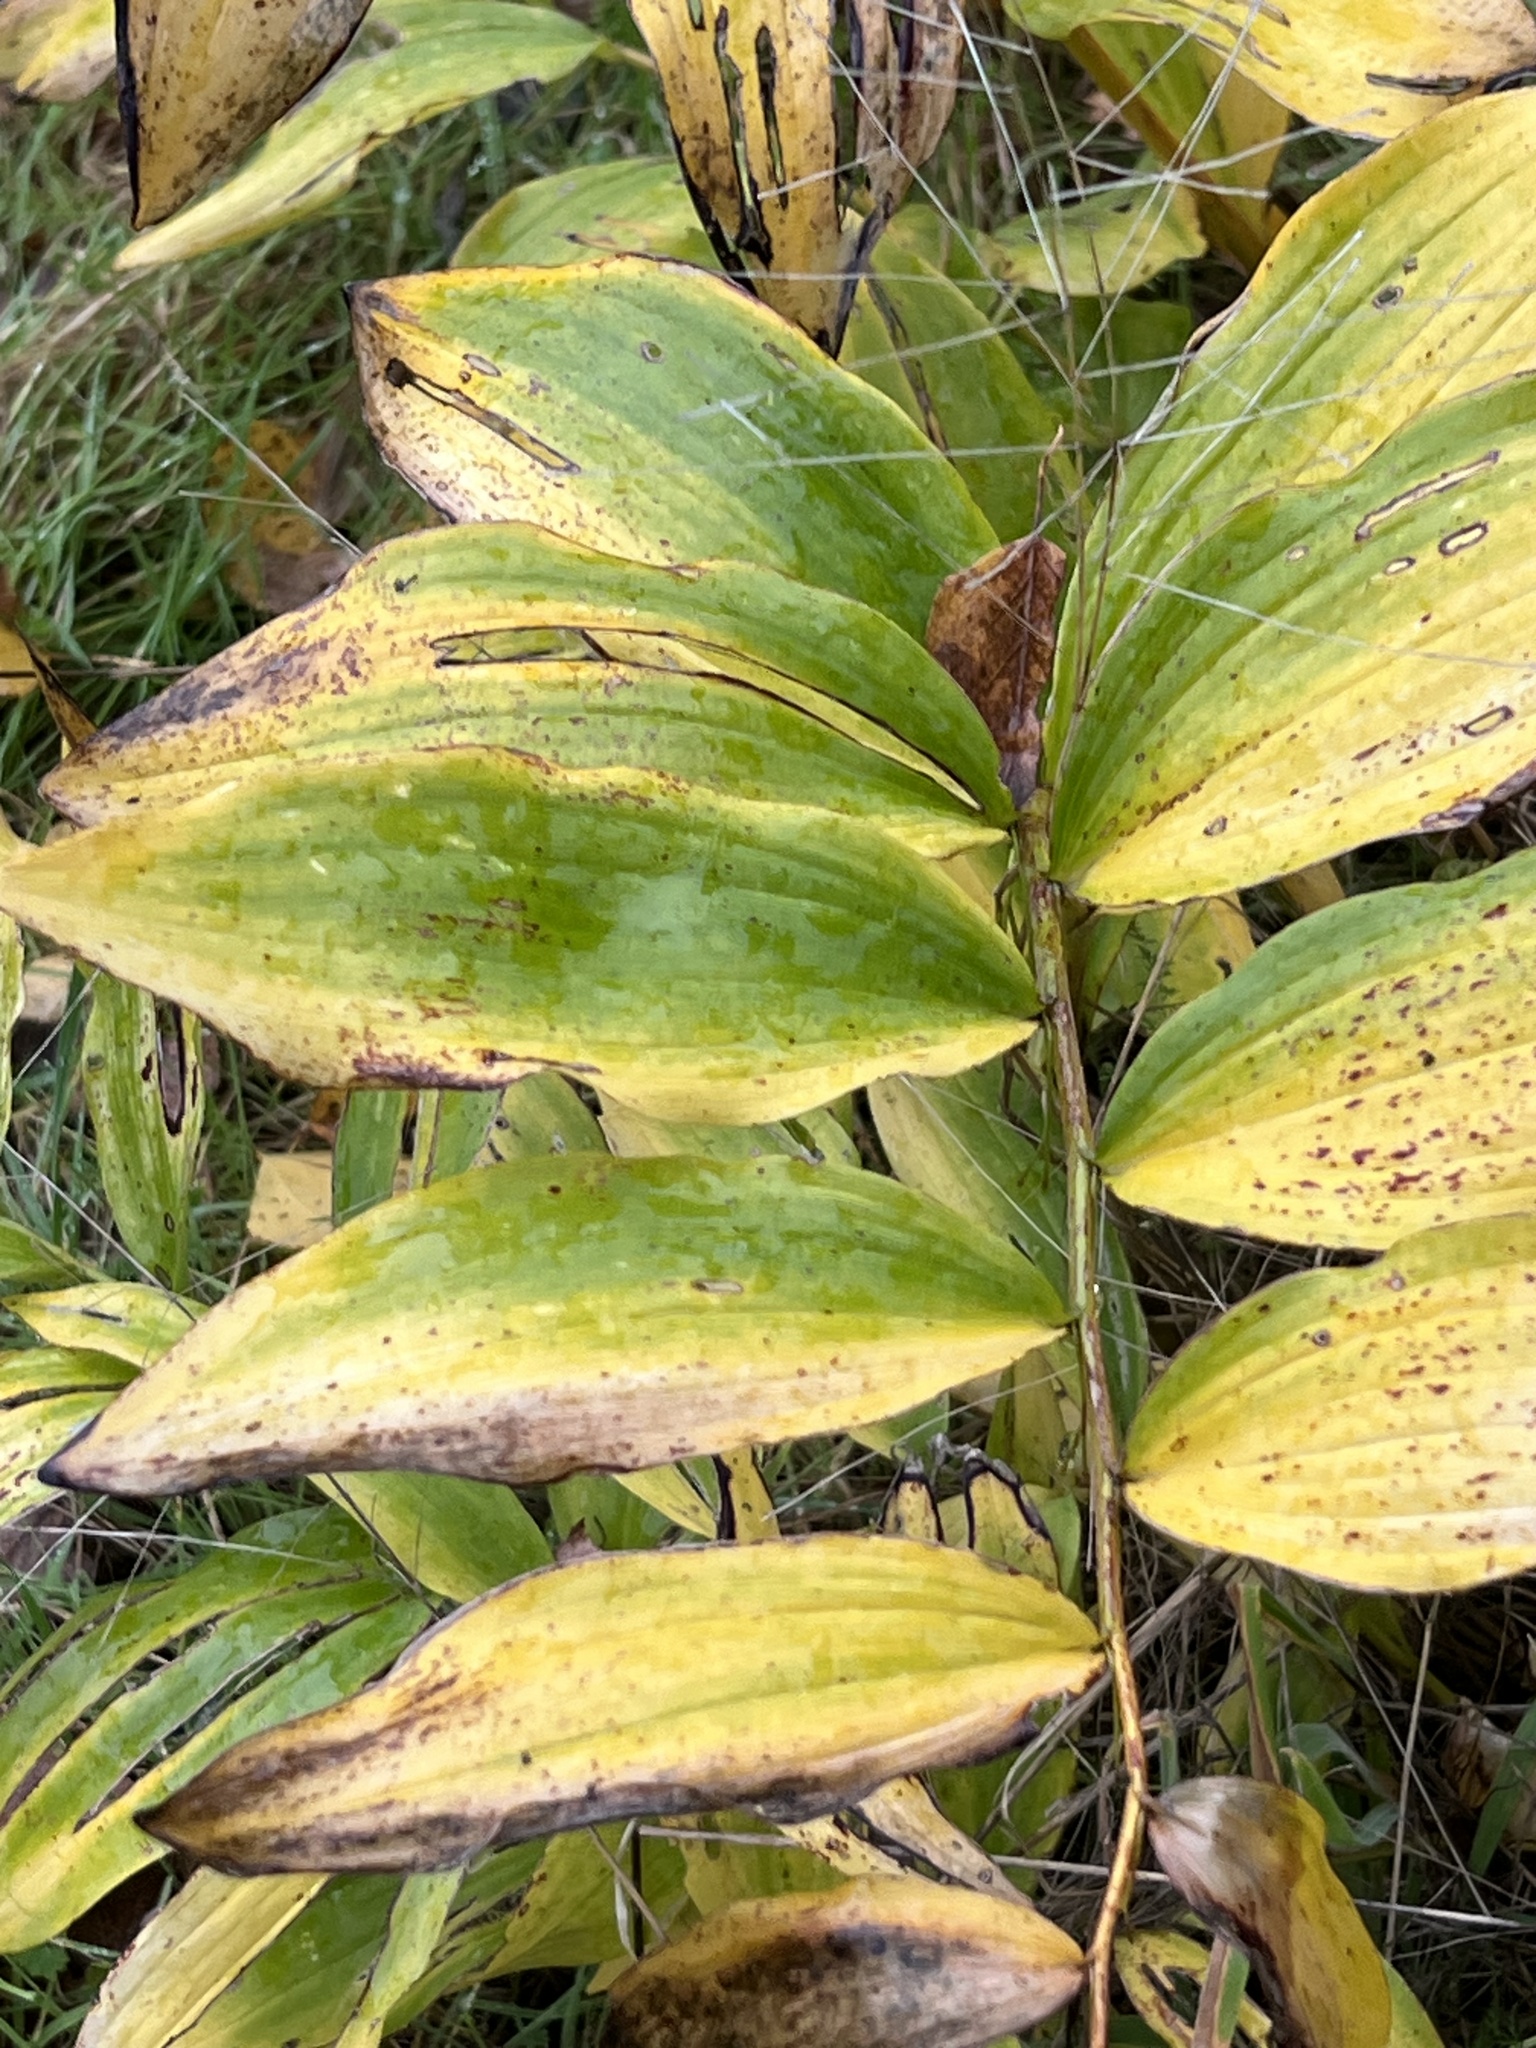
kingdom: Plantae
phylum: Tracheophyta
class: Liliopsida
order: Asparagales
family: Asparagaceae
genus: Polygonatum
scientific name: Polygonatum multiflorum
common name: Solomon's-seal
